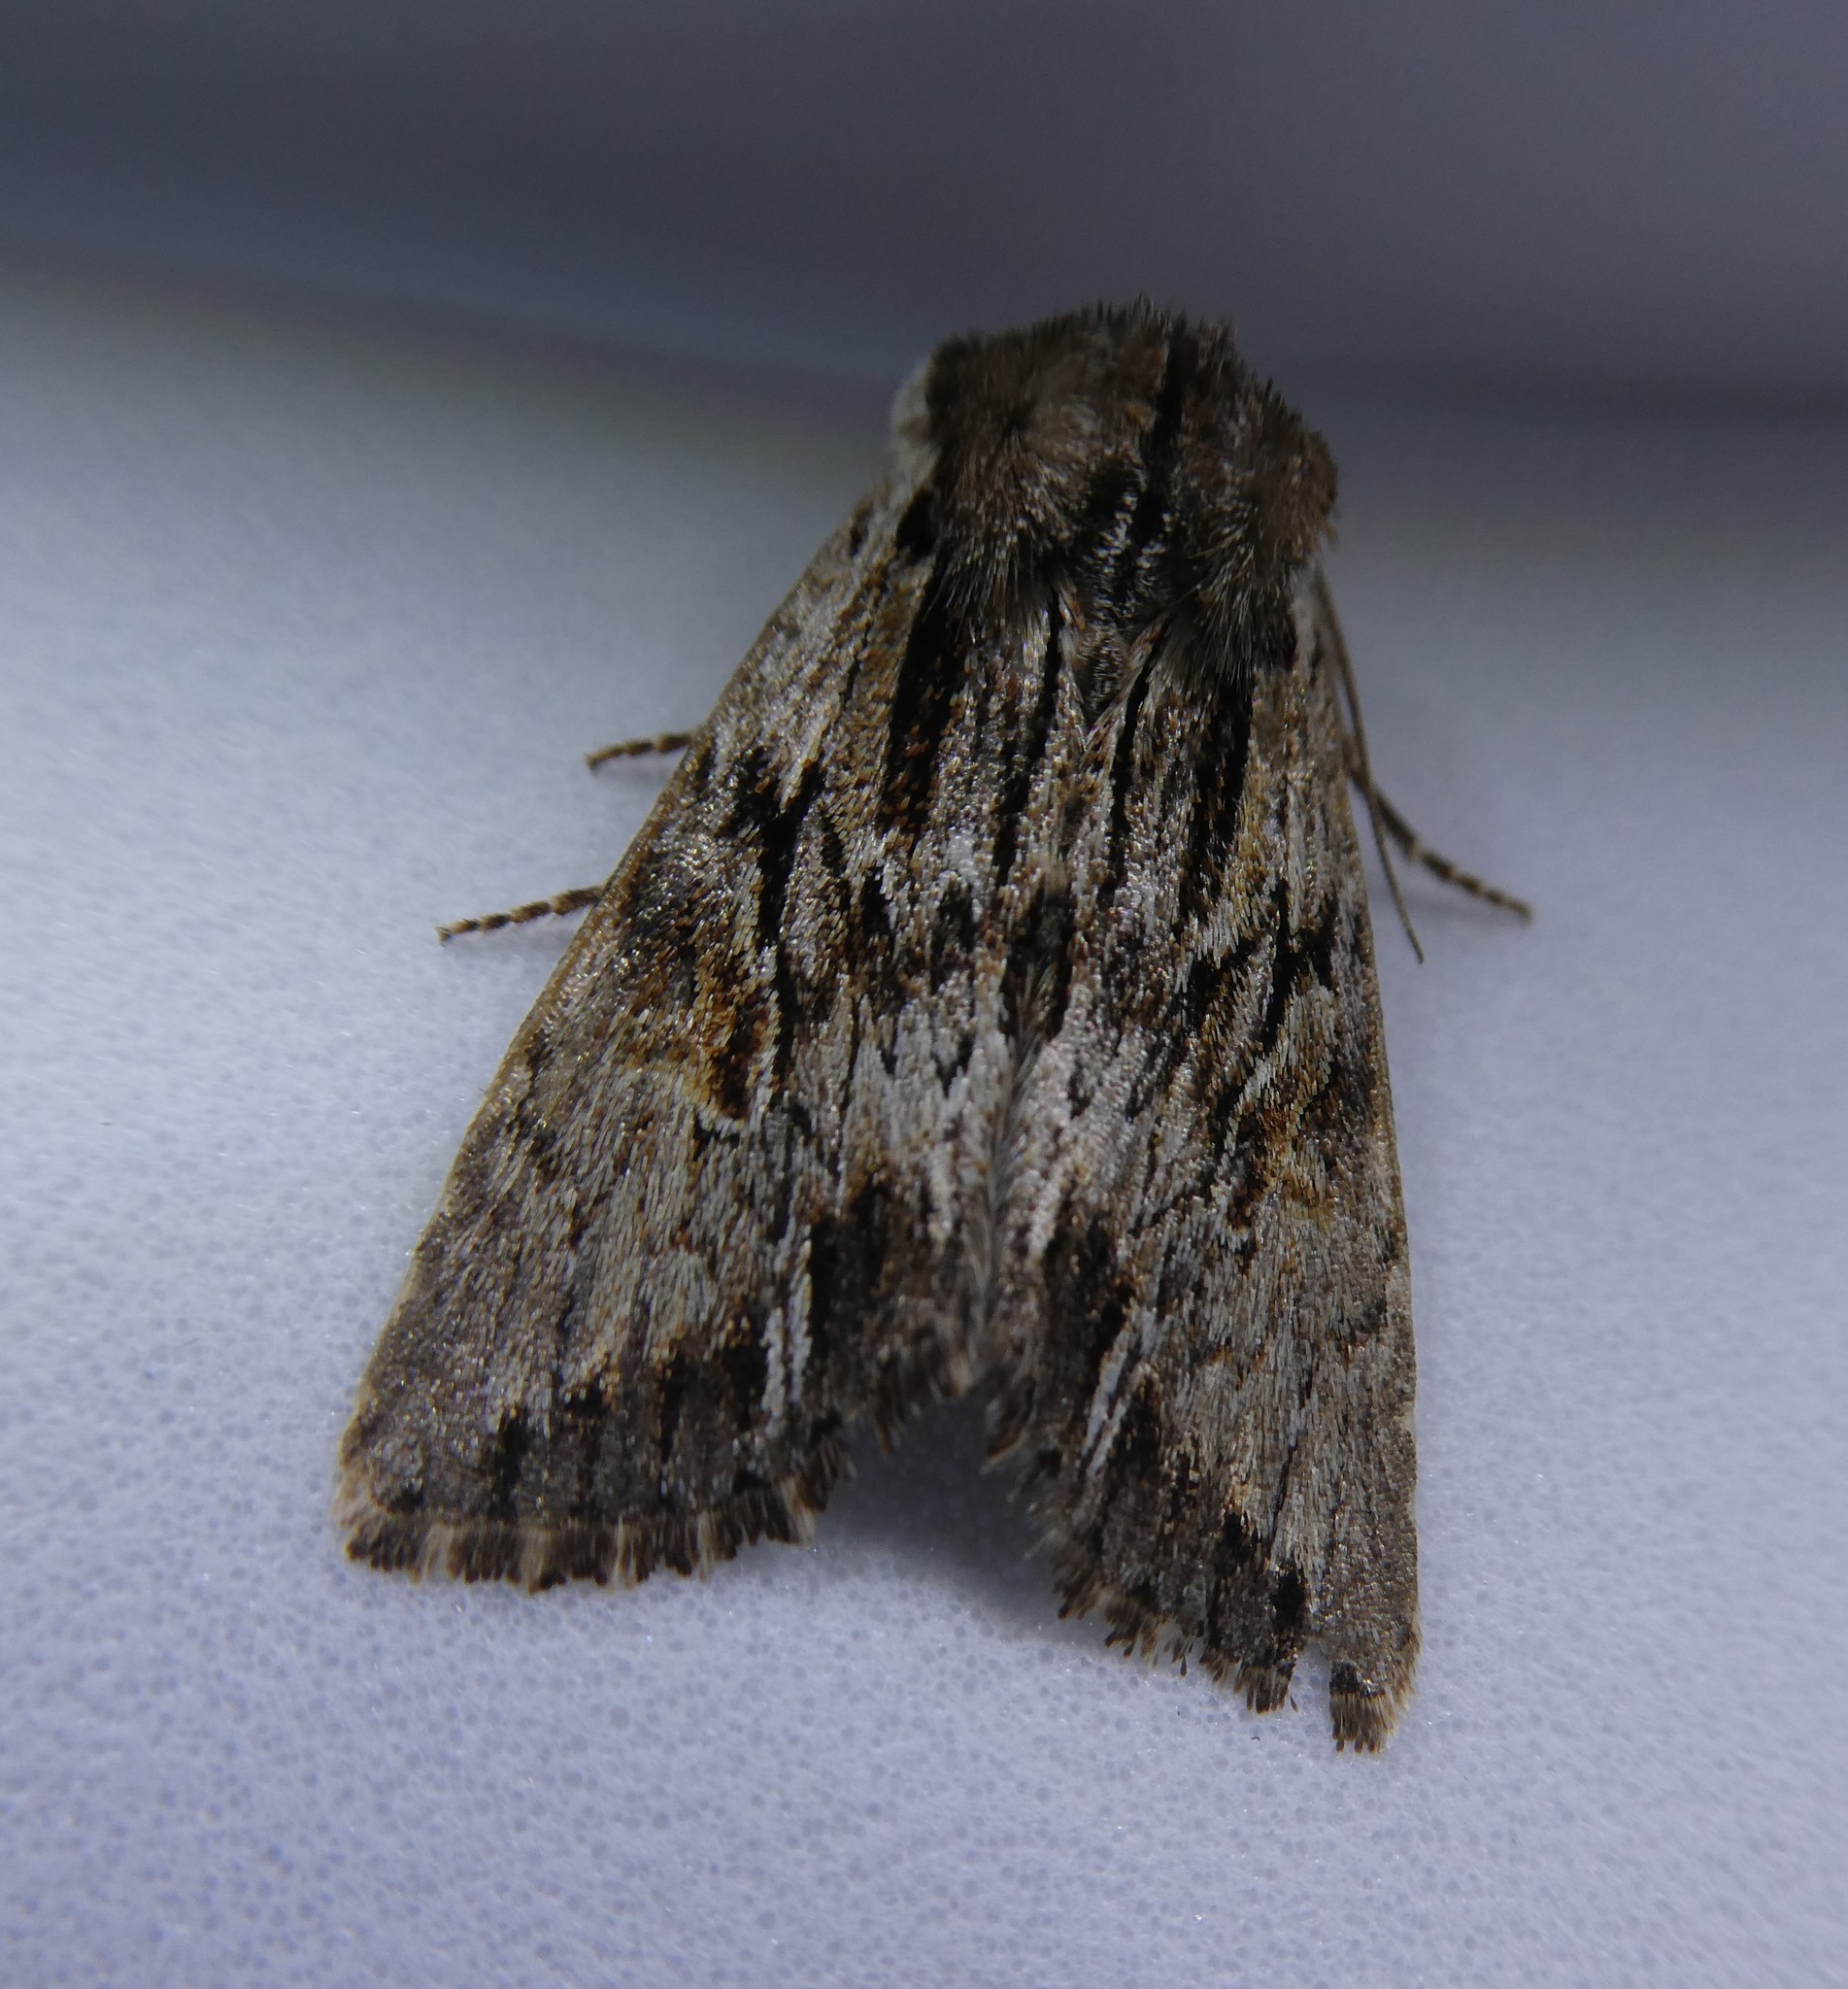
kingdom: Animalia
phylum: Arthropoda
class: Insecta
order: Lepidoptera
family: Noctuidae
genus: Achatia
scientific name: Achatia evicta
